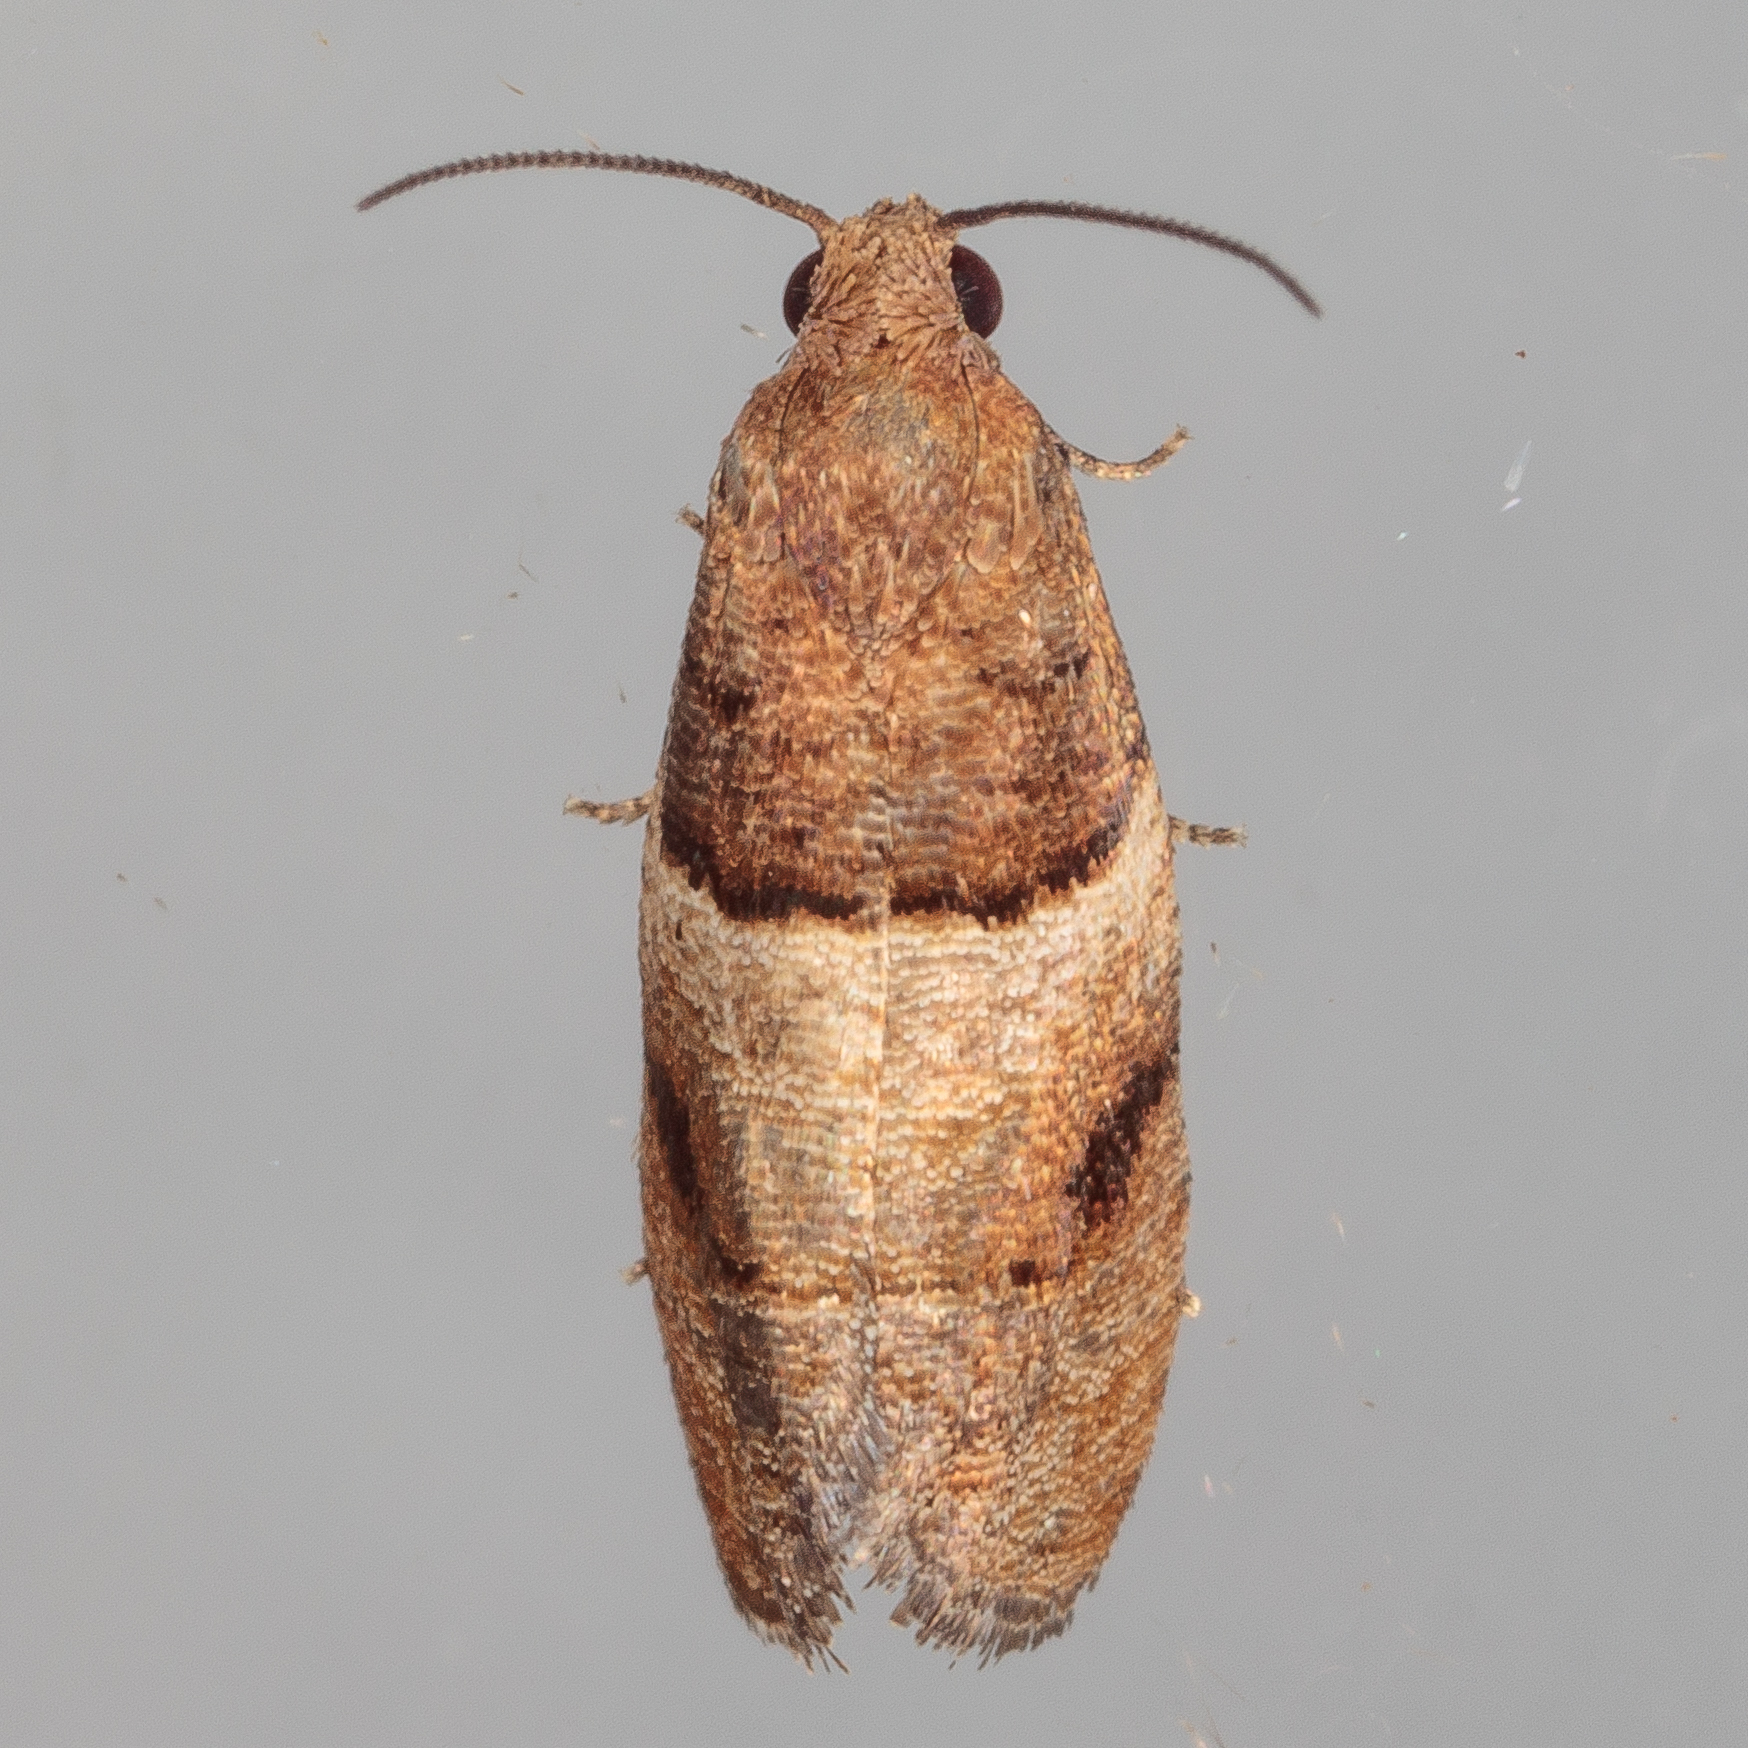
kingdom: Animalia
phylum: Arthropoda
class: Insecta
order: Lepidoptera
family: Tortricidae
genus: Larisa
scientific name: Larisa subsolana
